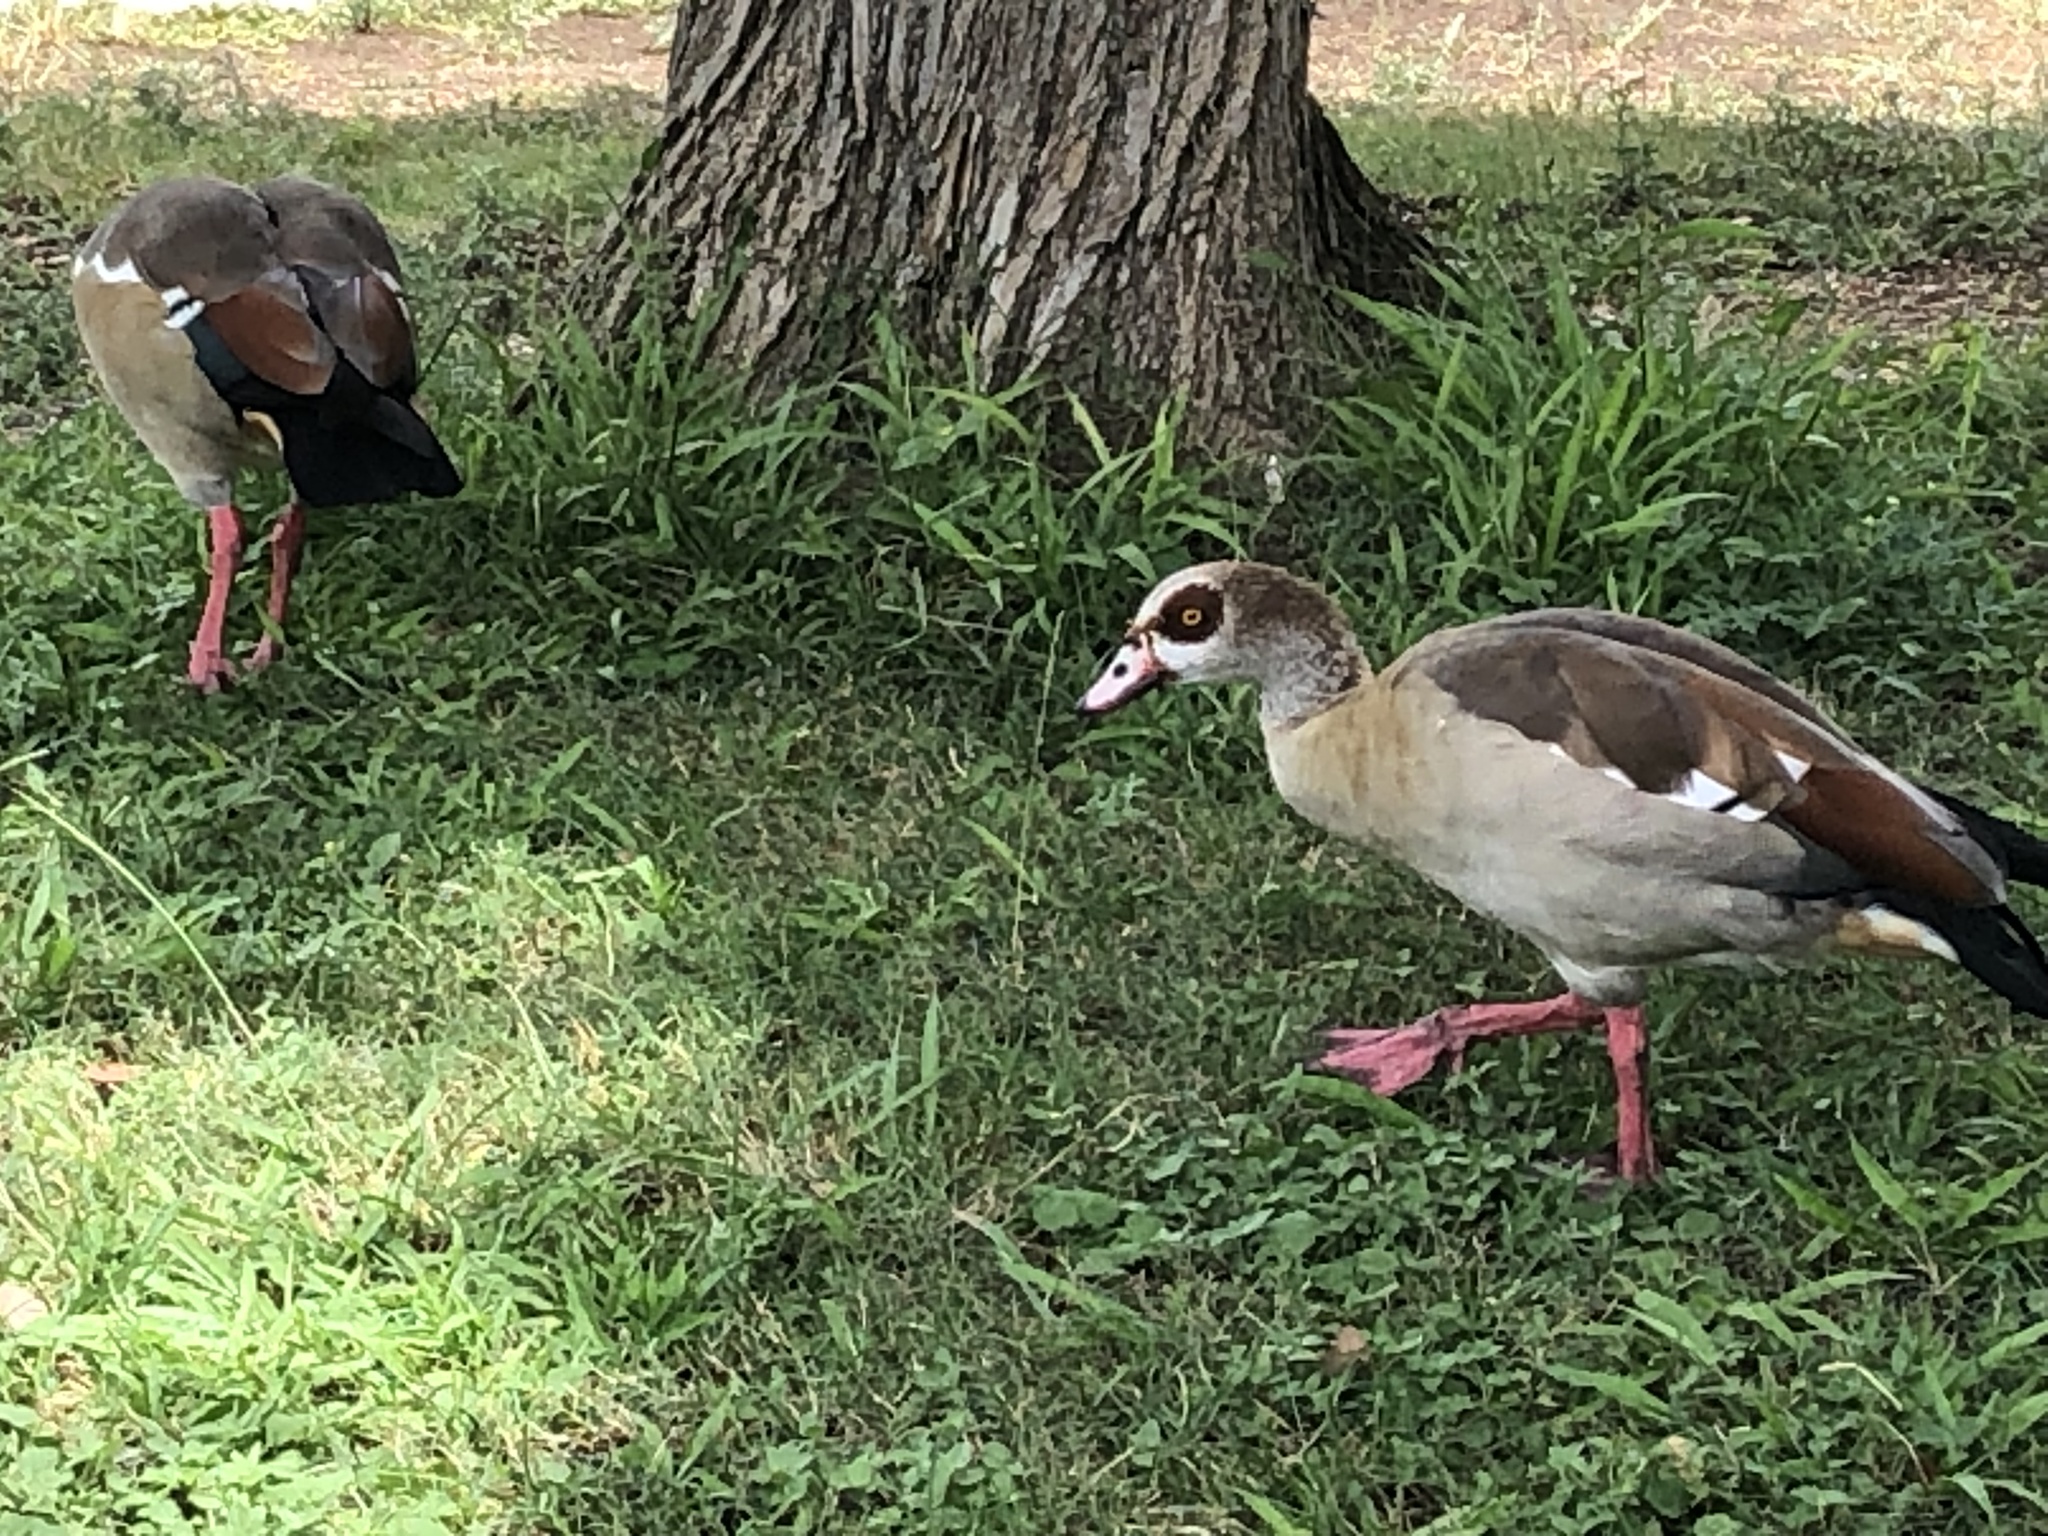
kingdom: Animalia
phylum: Chordata
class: Aves
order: Anseriformes
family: Anatidae
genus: Alopochen
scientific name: Alopochen aegyptiaca
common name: Egyptian goose
